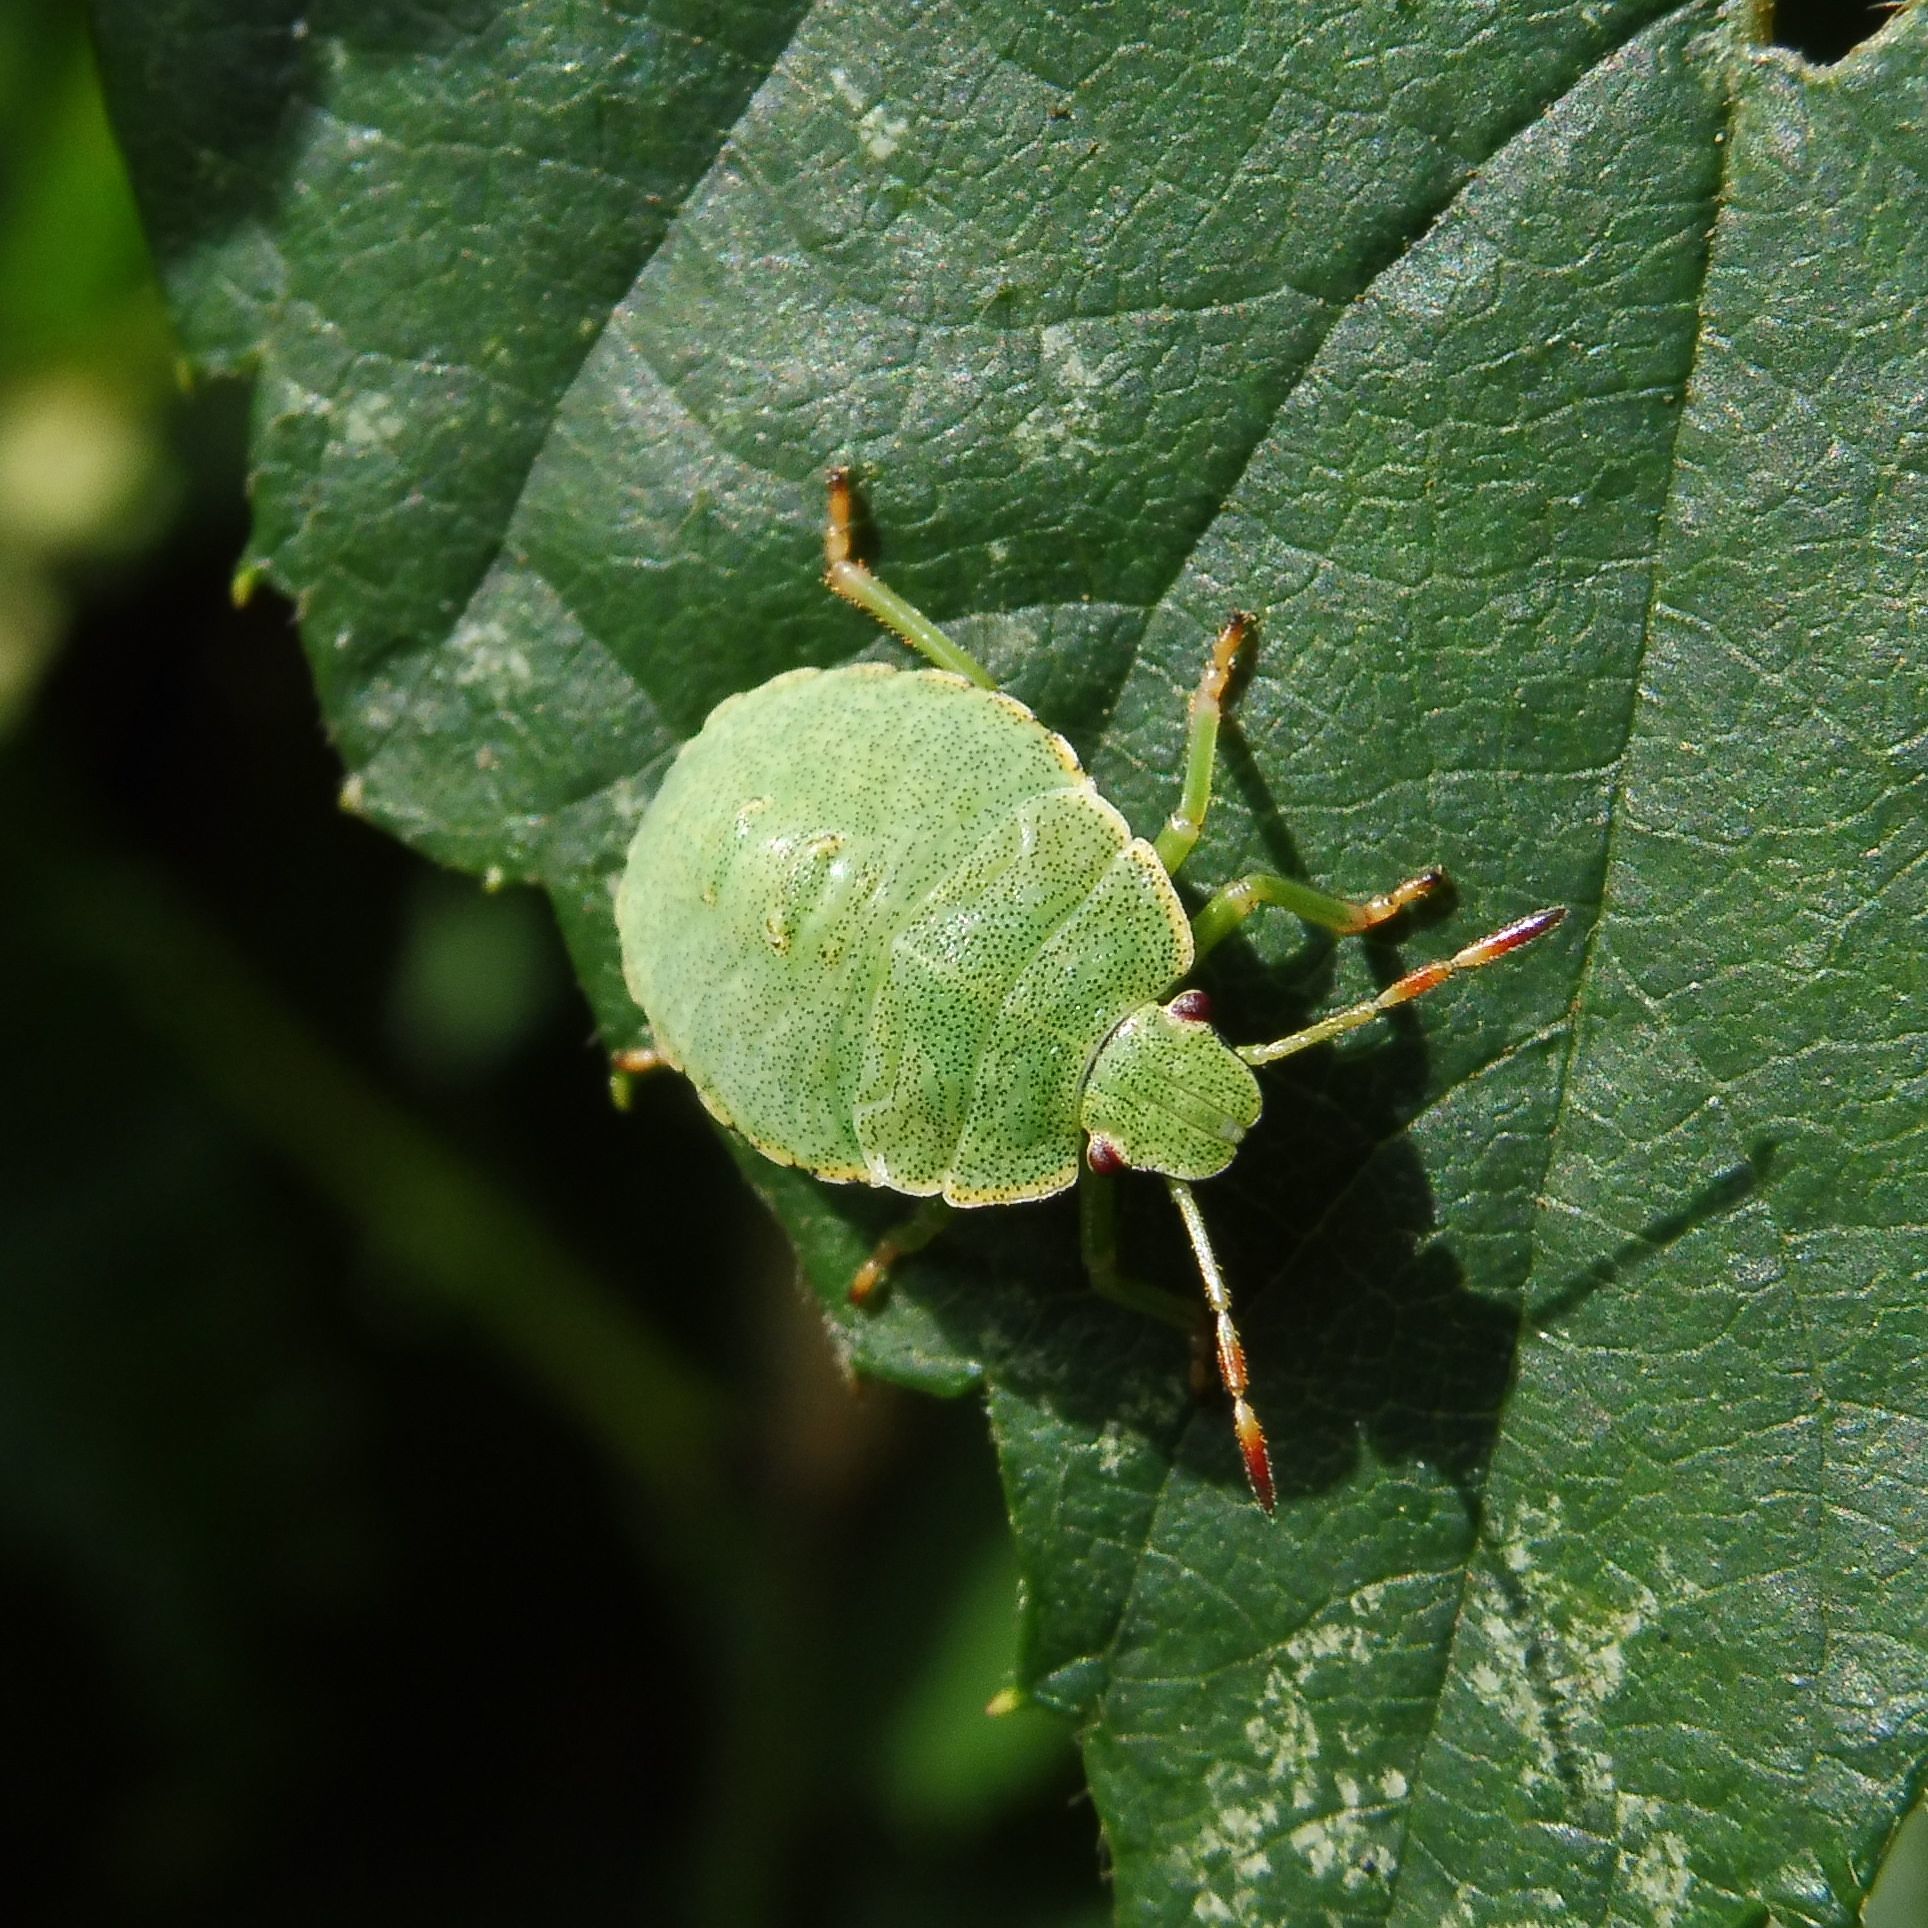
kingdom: Animalia
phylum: Arthropoda
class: Insecta
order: Hemiptera
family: Pentatomidae
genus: Palomena
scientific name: Palomena prasina
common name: Green shieldbug
